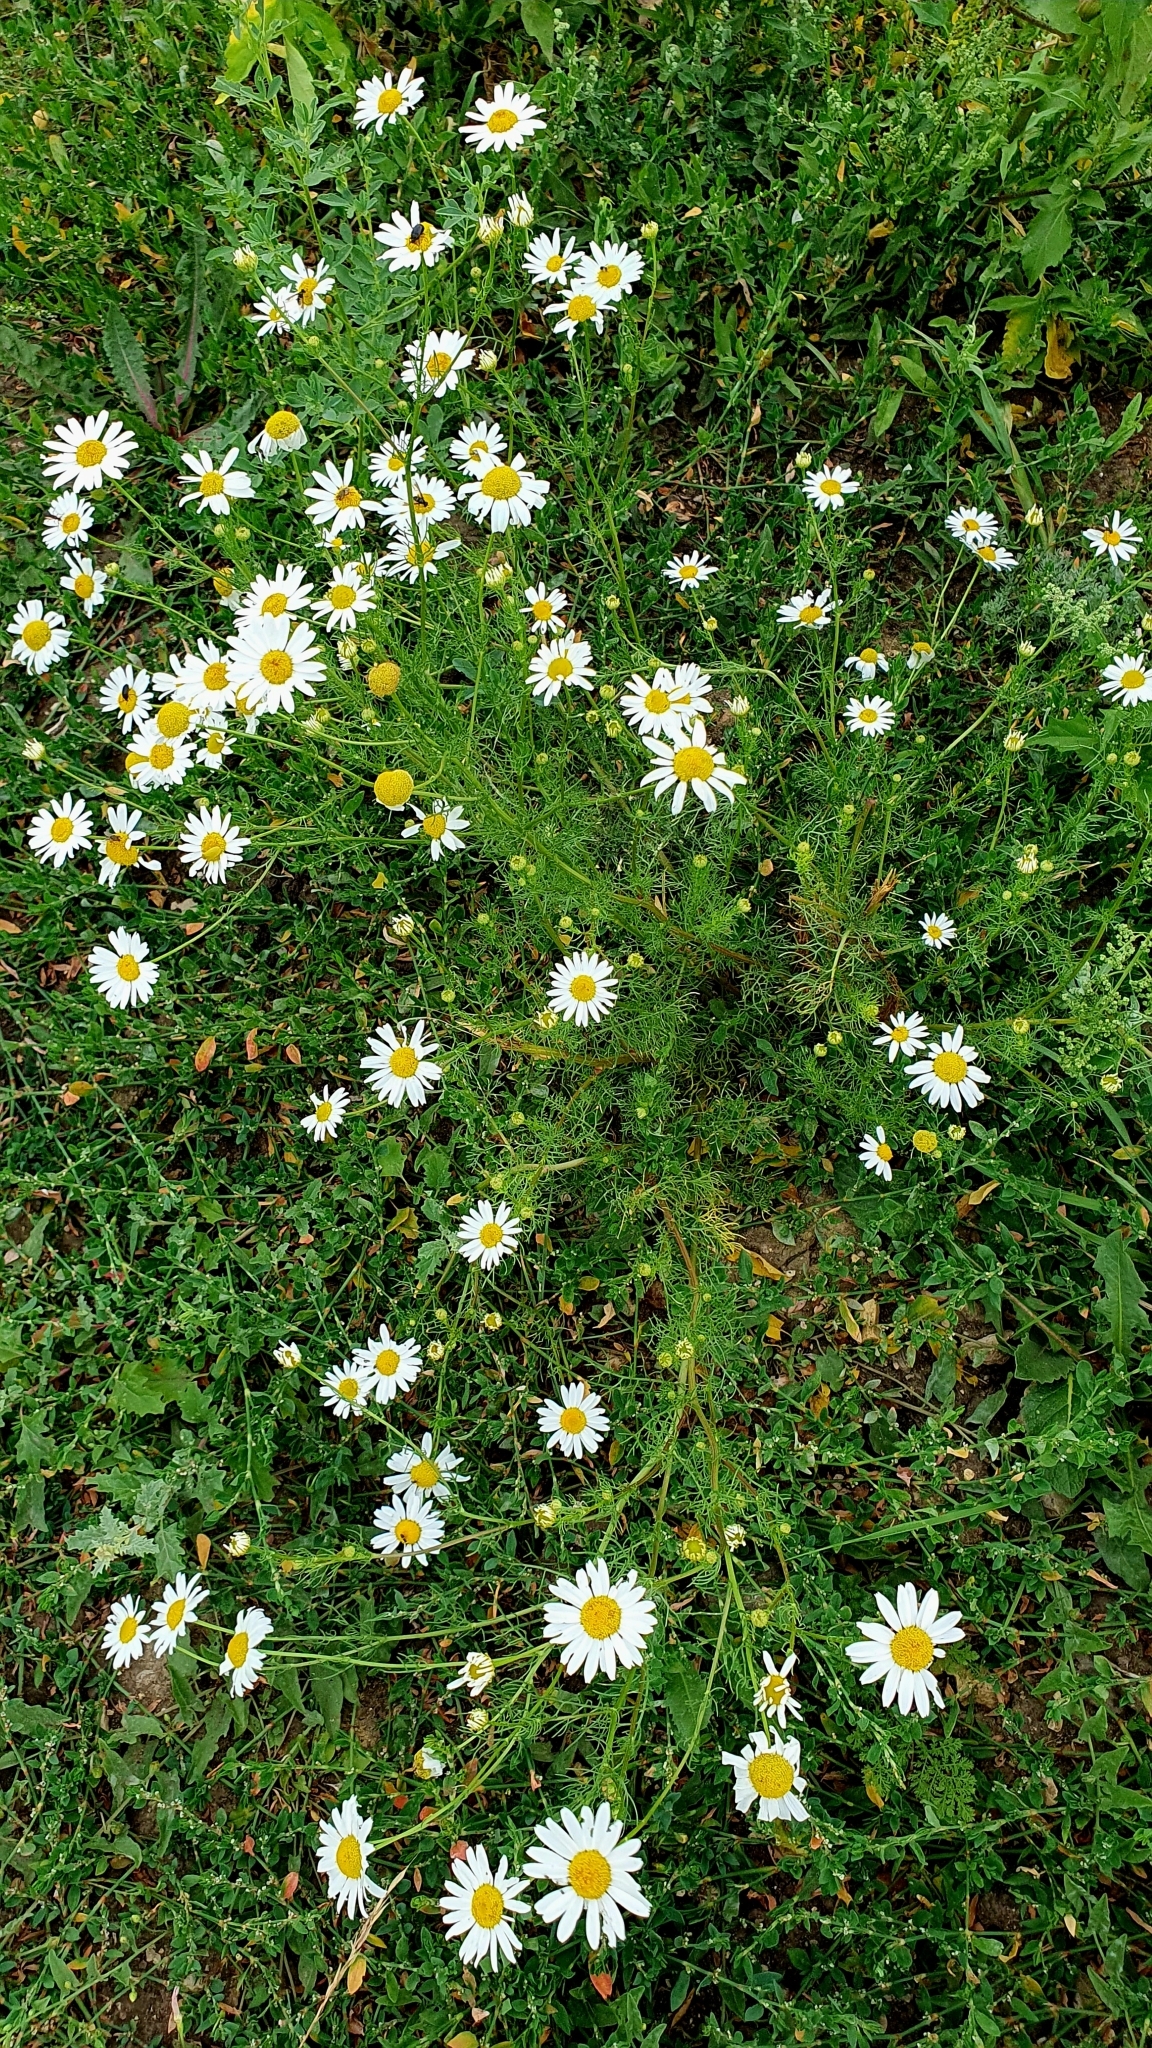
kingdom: Plantae
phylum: Tracheophyta
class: Magnoliopsida
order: Asterales
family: Asteraceae
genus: Tripleurospermum
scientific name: Tripleurospermum inodorum
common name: Scentless mayweed
